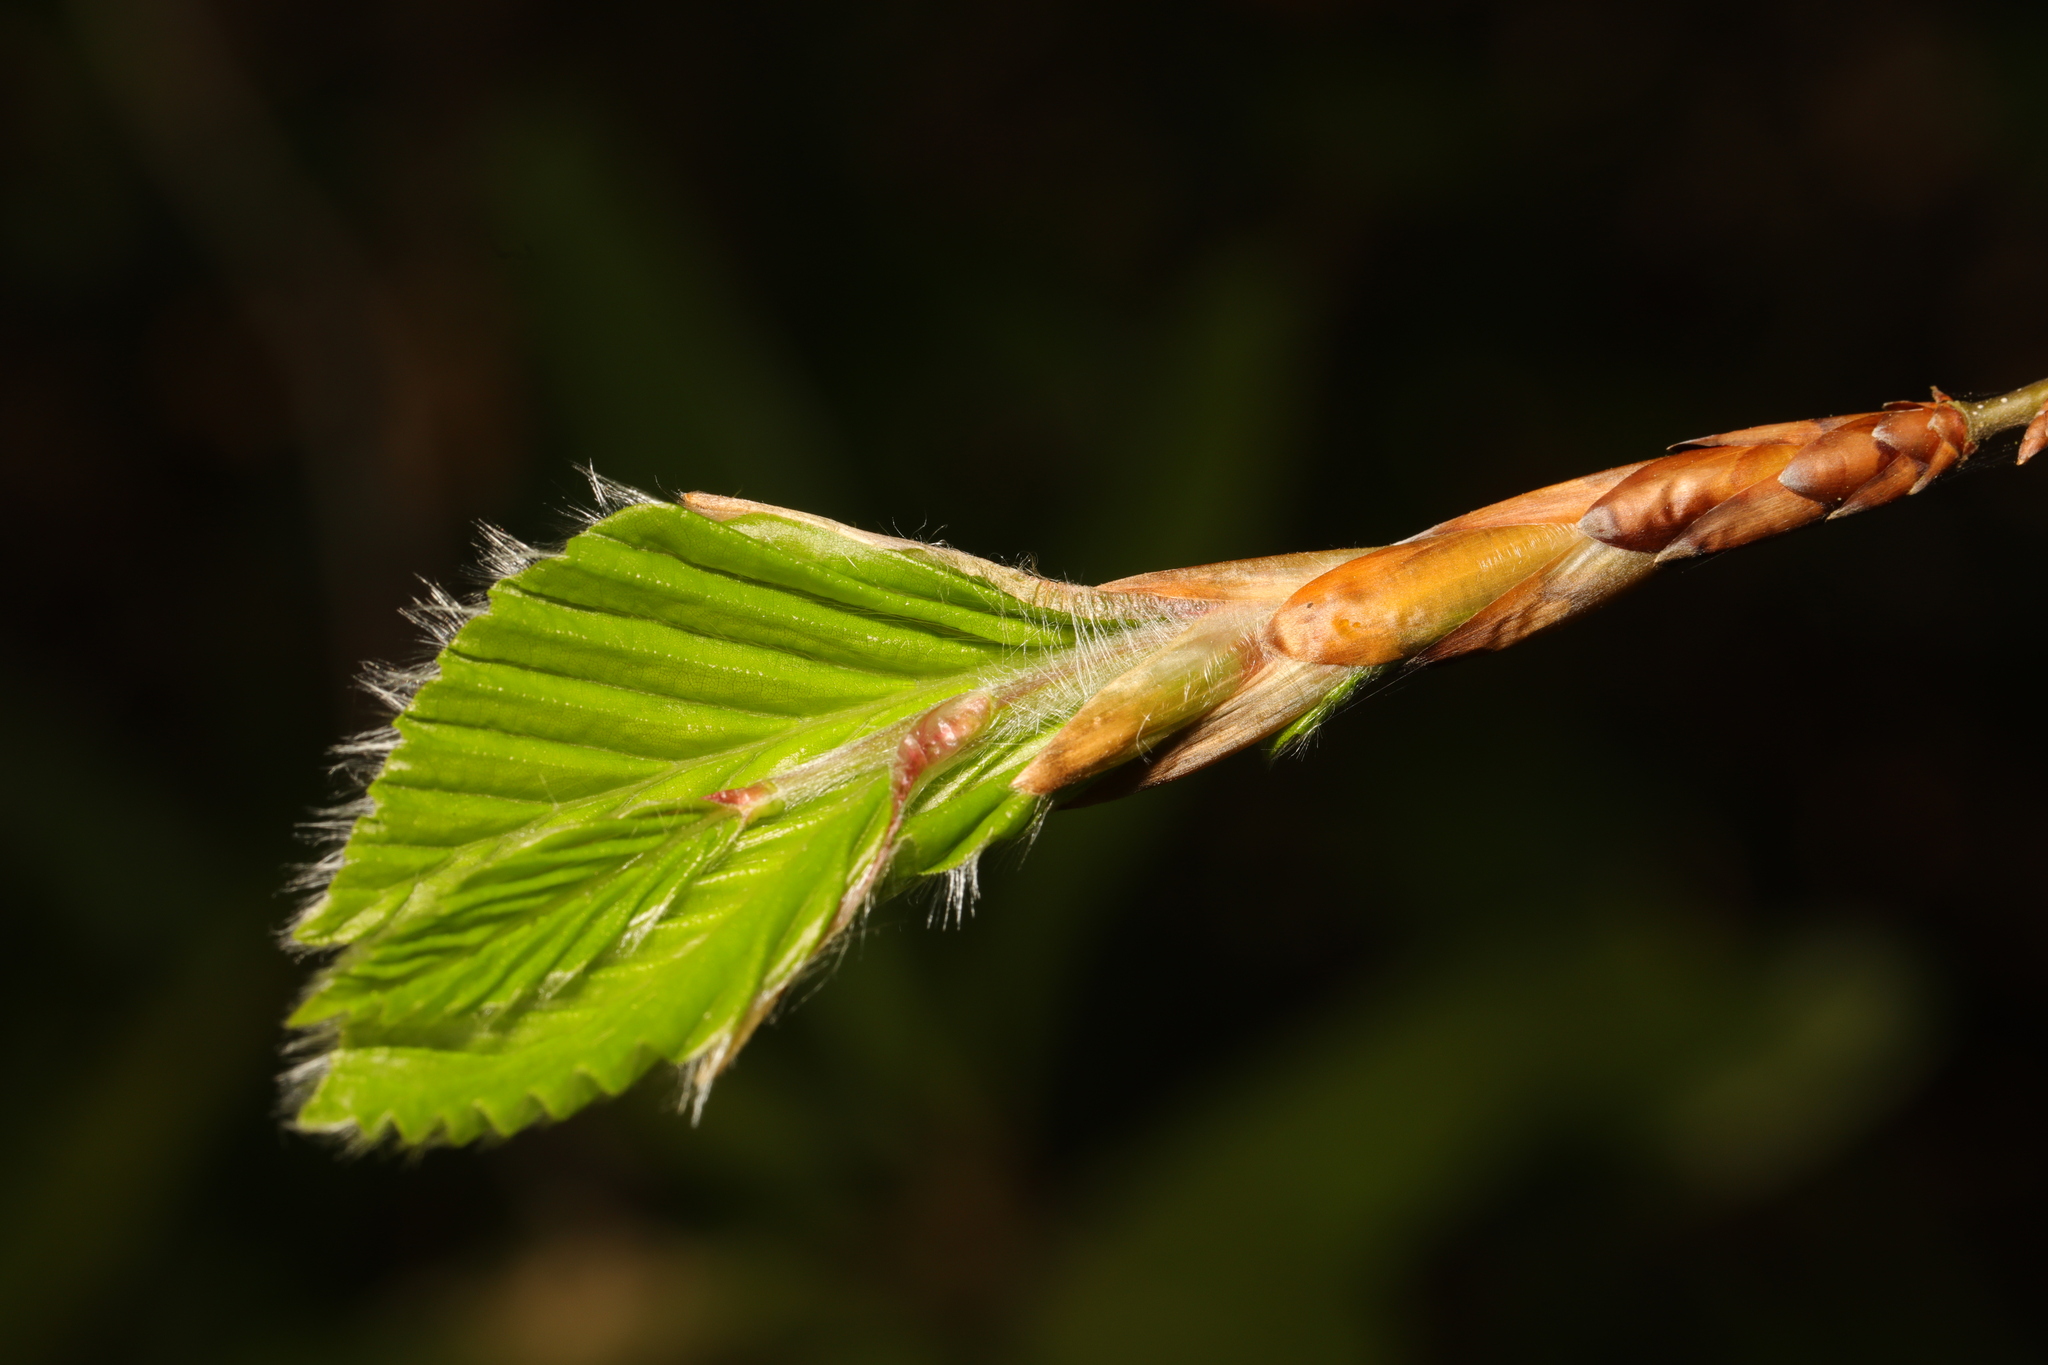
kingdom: Plantae
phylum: Tracheophyta
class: Magnoliopsida
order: Fagales
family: Fagaceae
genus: Fagus
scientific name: Fagus sylvatica
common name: Beech
